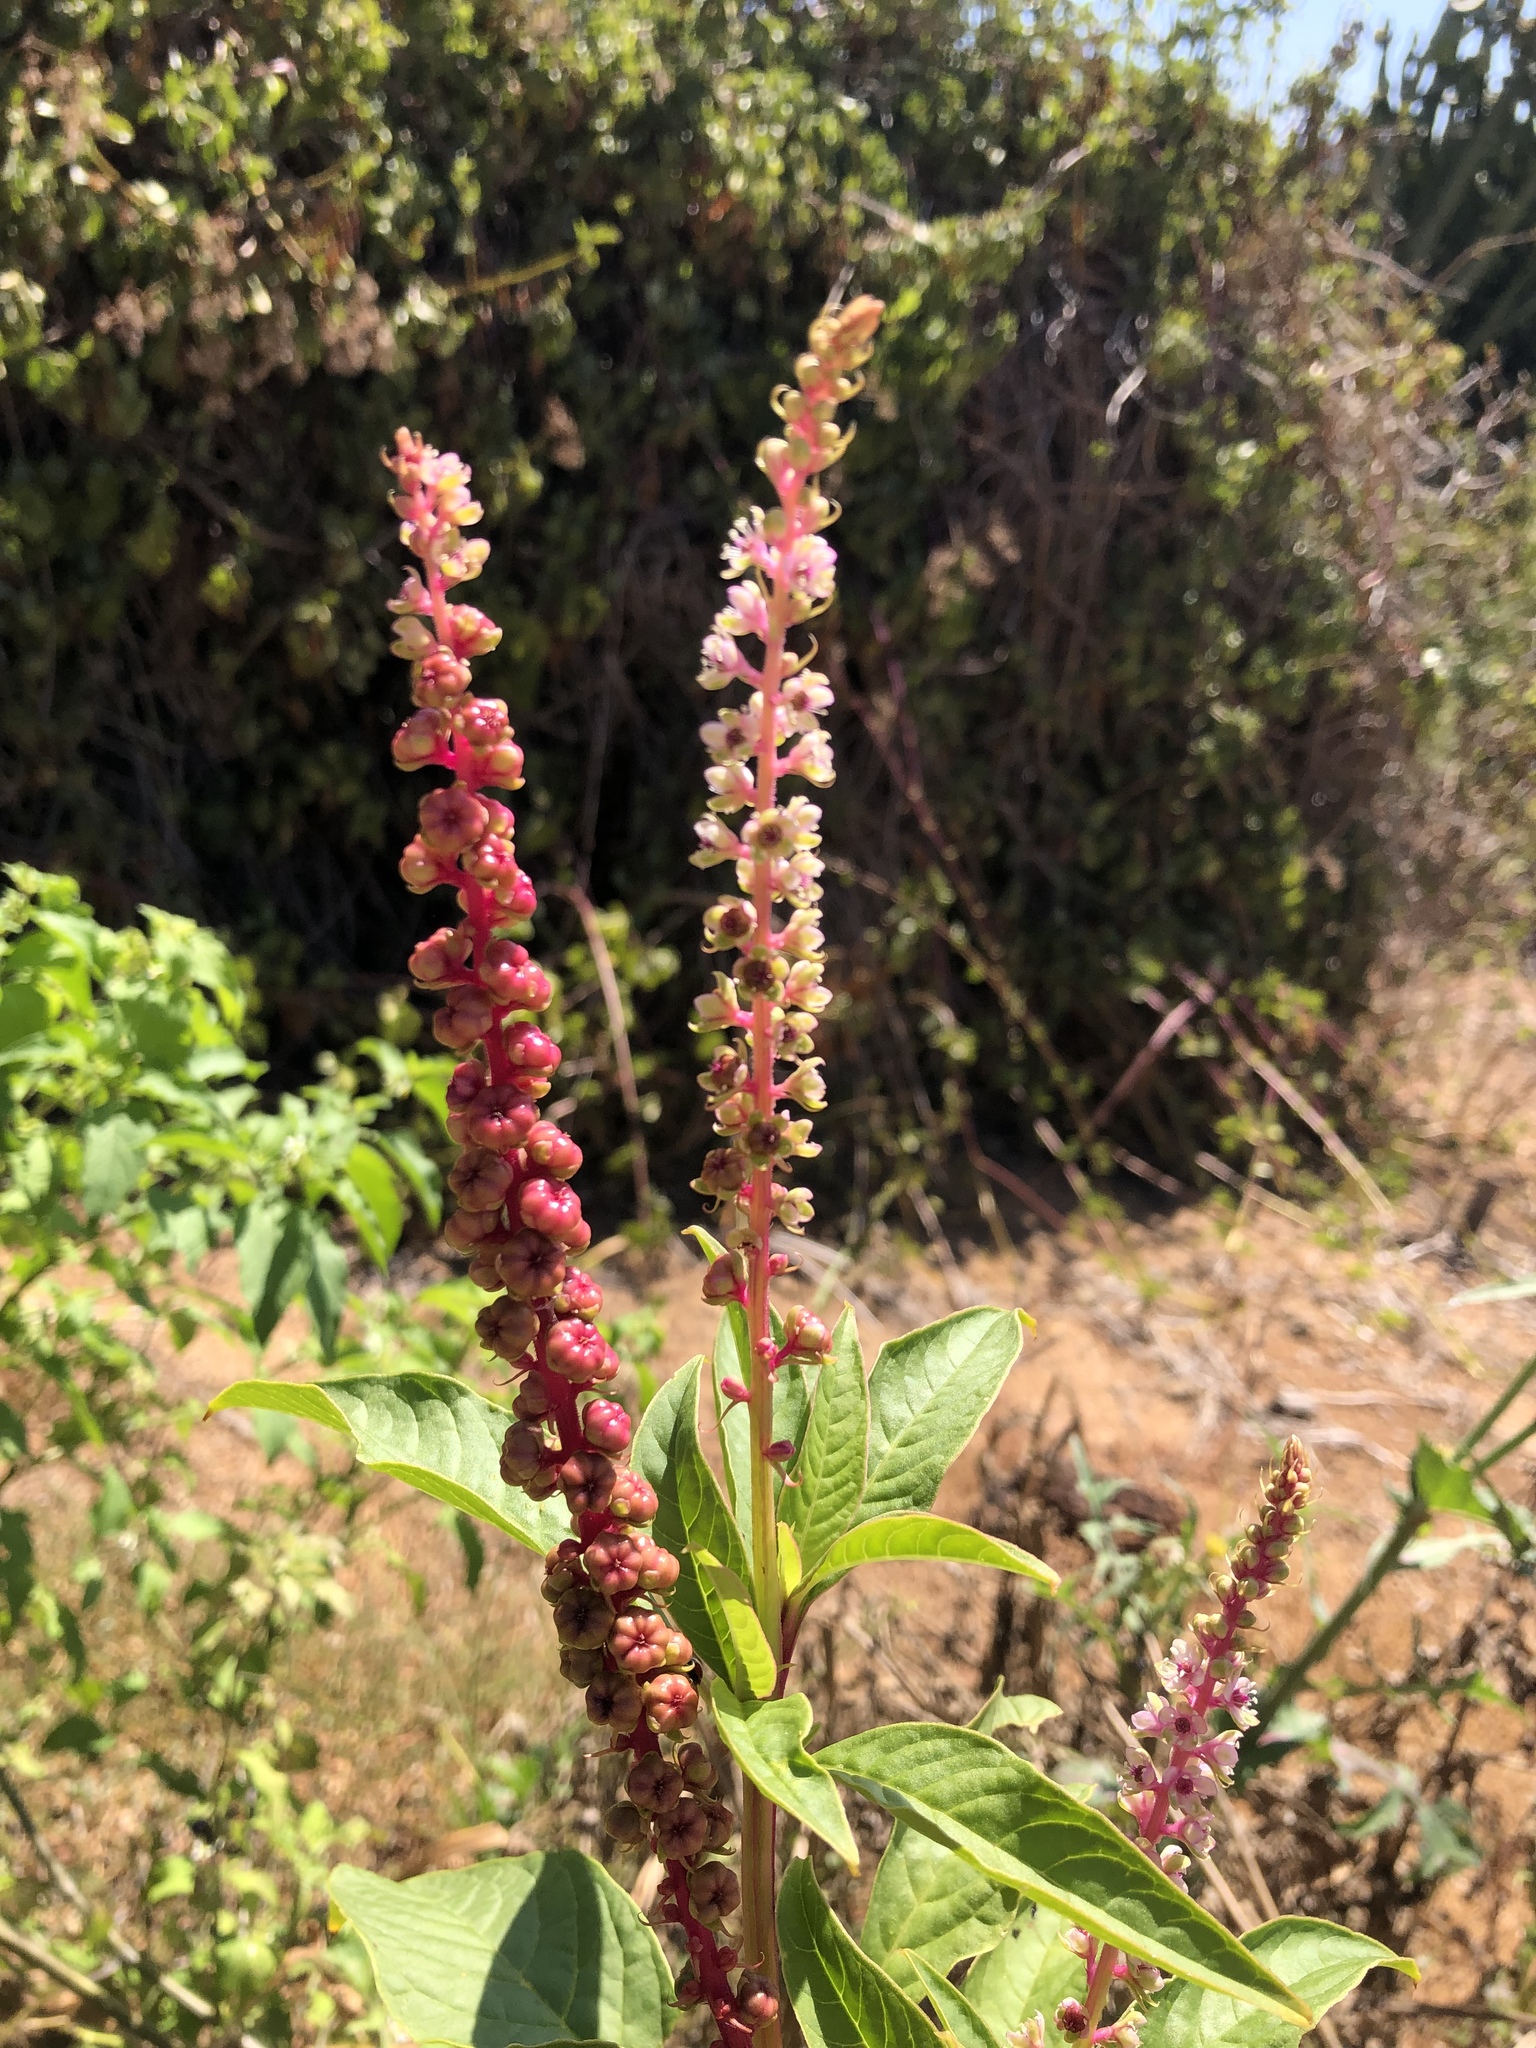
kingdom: Plantae
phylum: Tracheophyta
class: Magnoliopsida
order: Caryophyllales
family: Phytolaccaceae
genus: Phytolacca
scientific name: Phytolacca icosandra
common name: Button pokeweed
